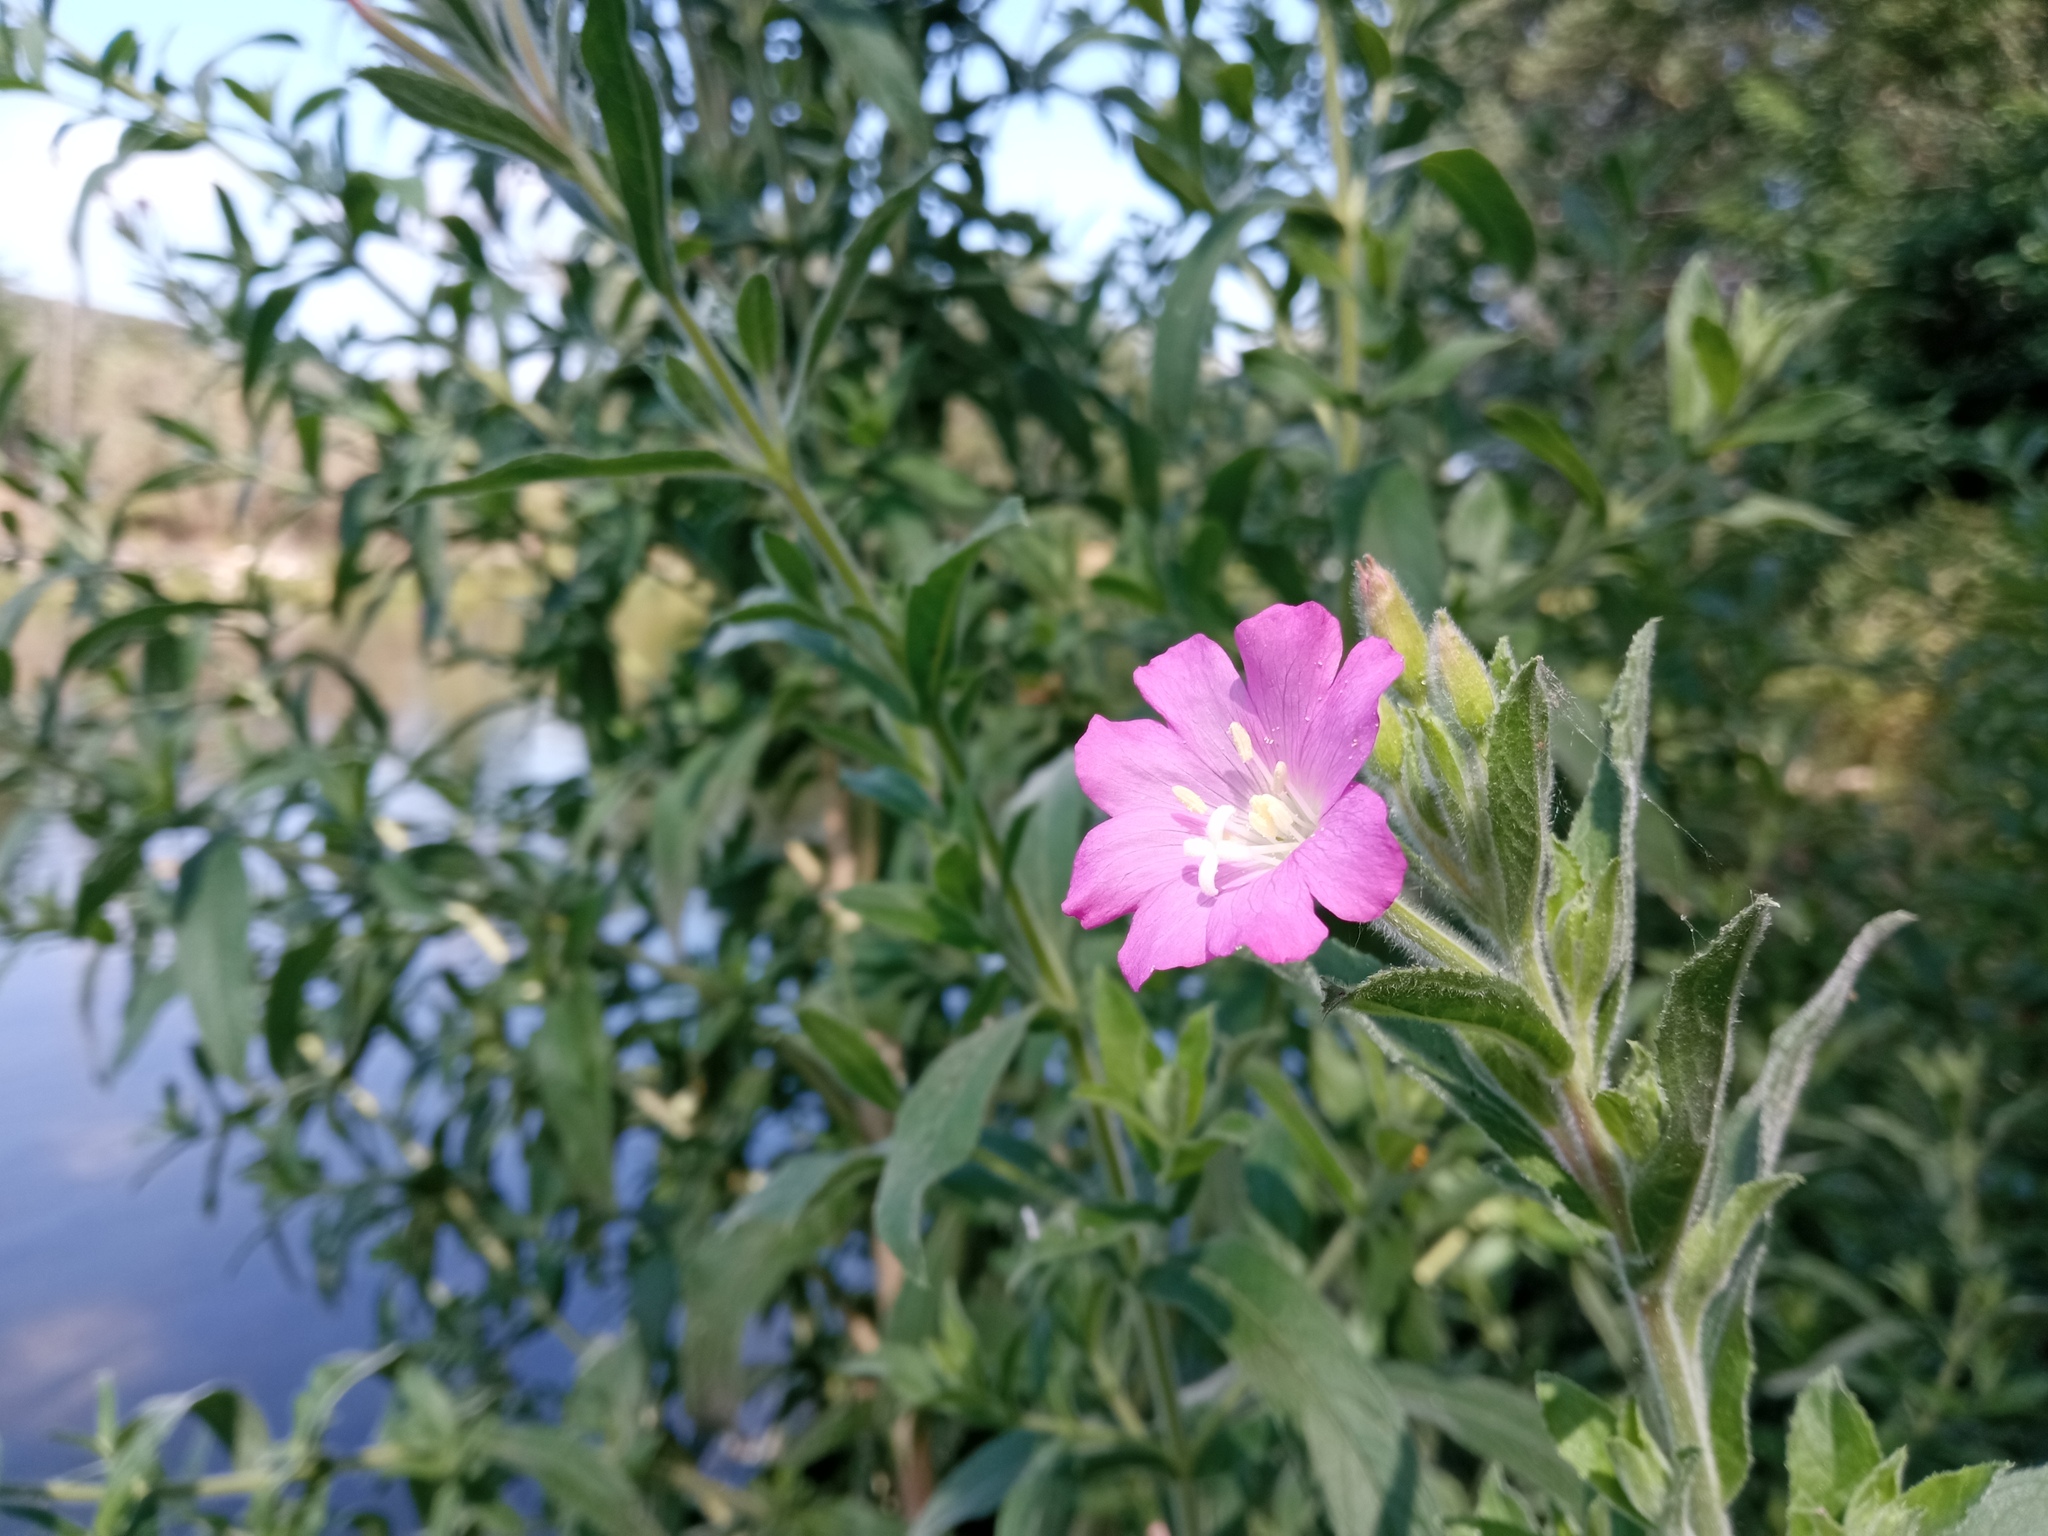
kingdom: Plantae
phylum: Tracheophyta
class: Magnoliopsida
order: Myrtales
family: Onagraceae
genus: Epilobium
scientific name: Epilobium hirsutum
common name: Great willowherb
